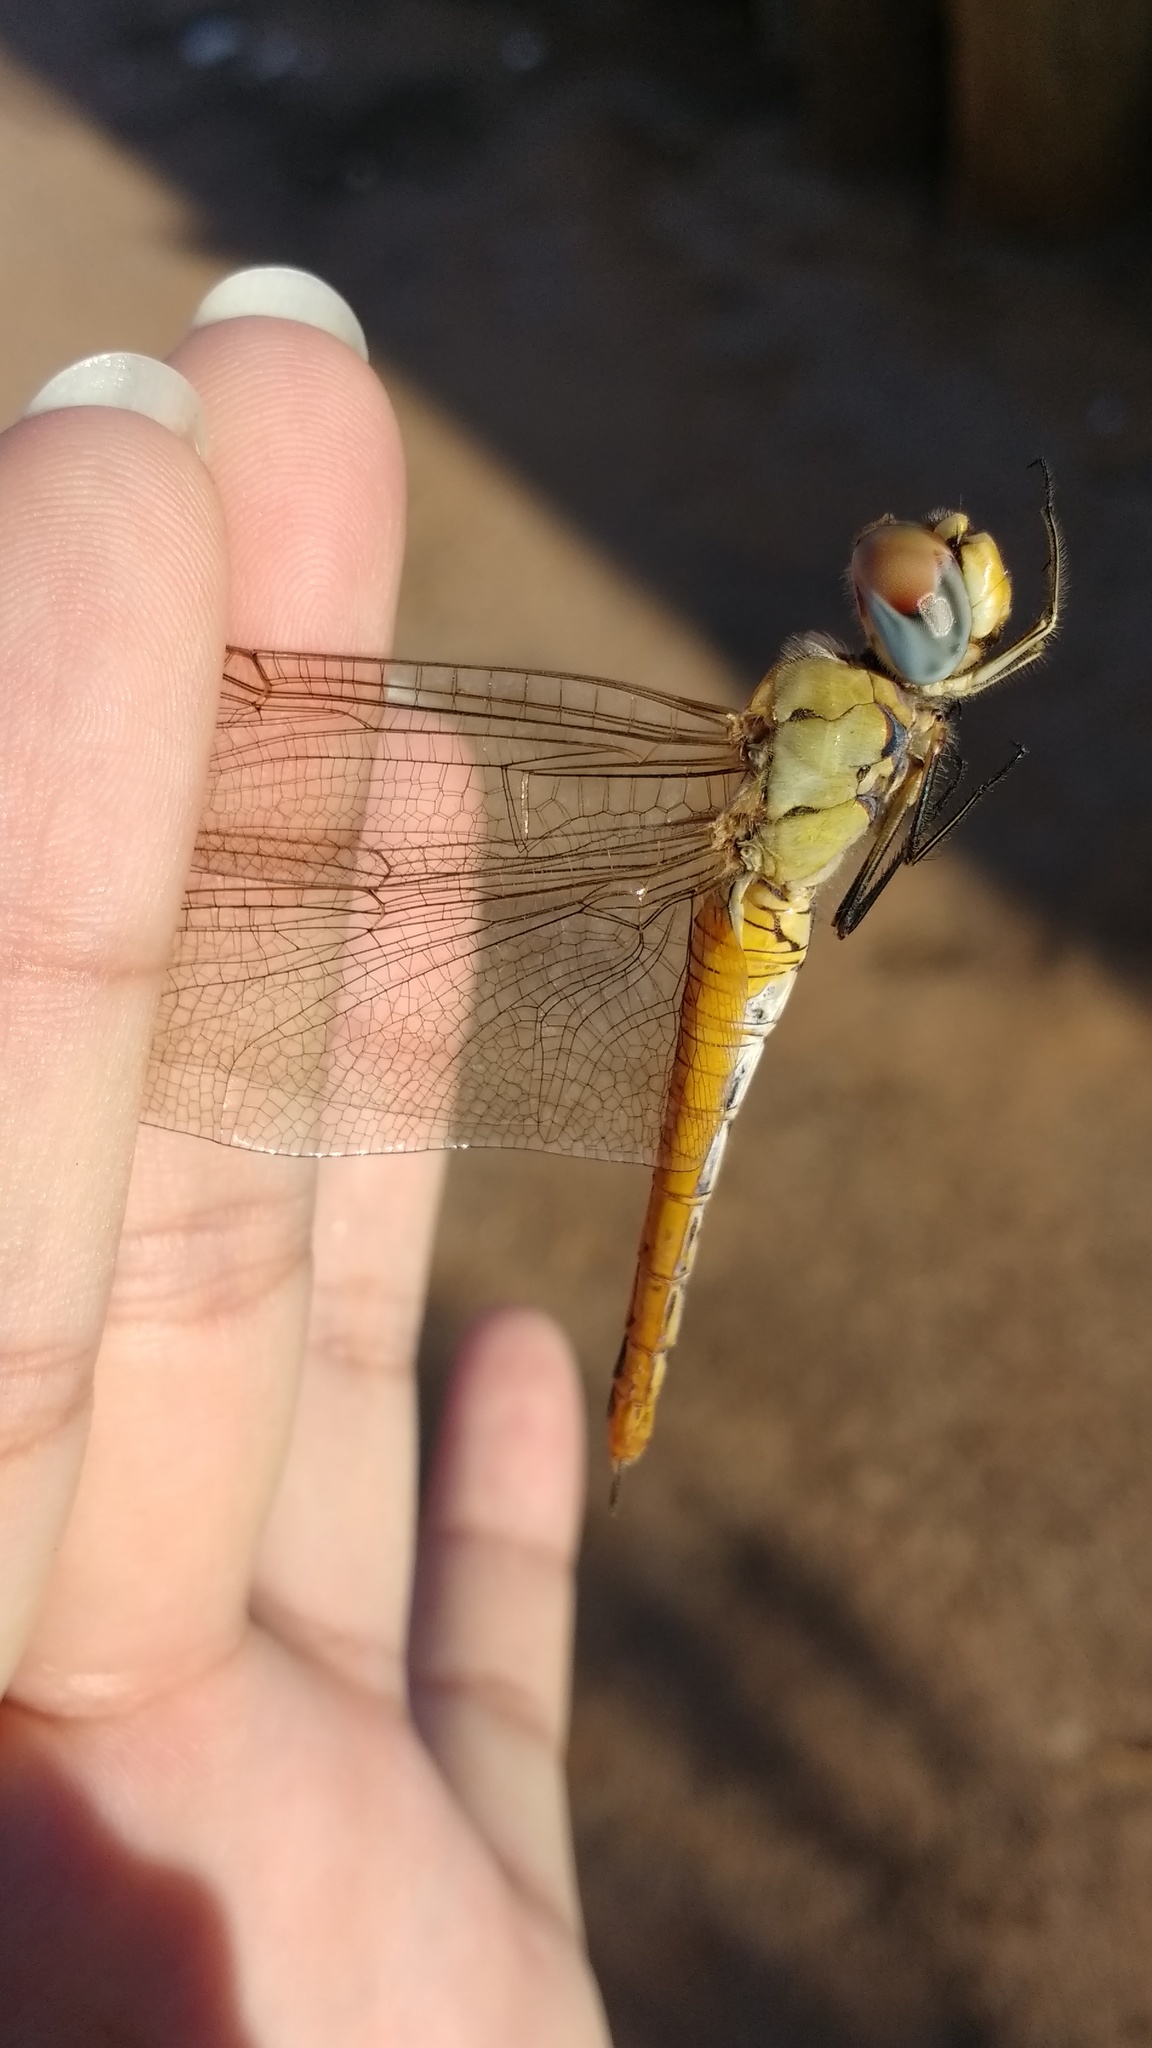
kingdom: Animalia
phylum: Arthropoda
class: Insecta
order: Odonata
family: Libellulidae
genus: Pantala
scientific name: Pantala flavescens
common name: Wandering glider
